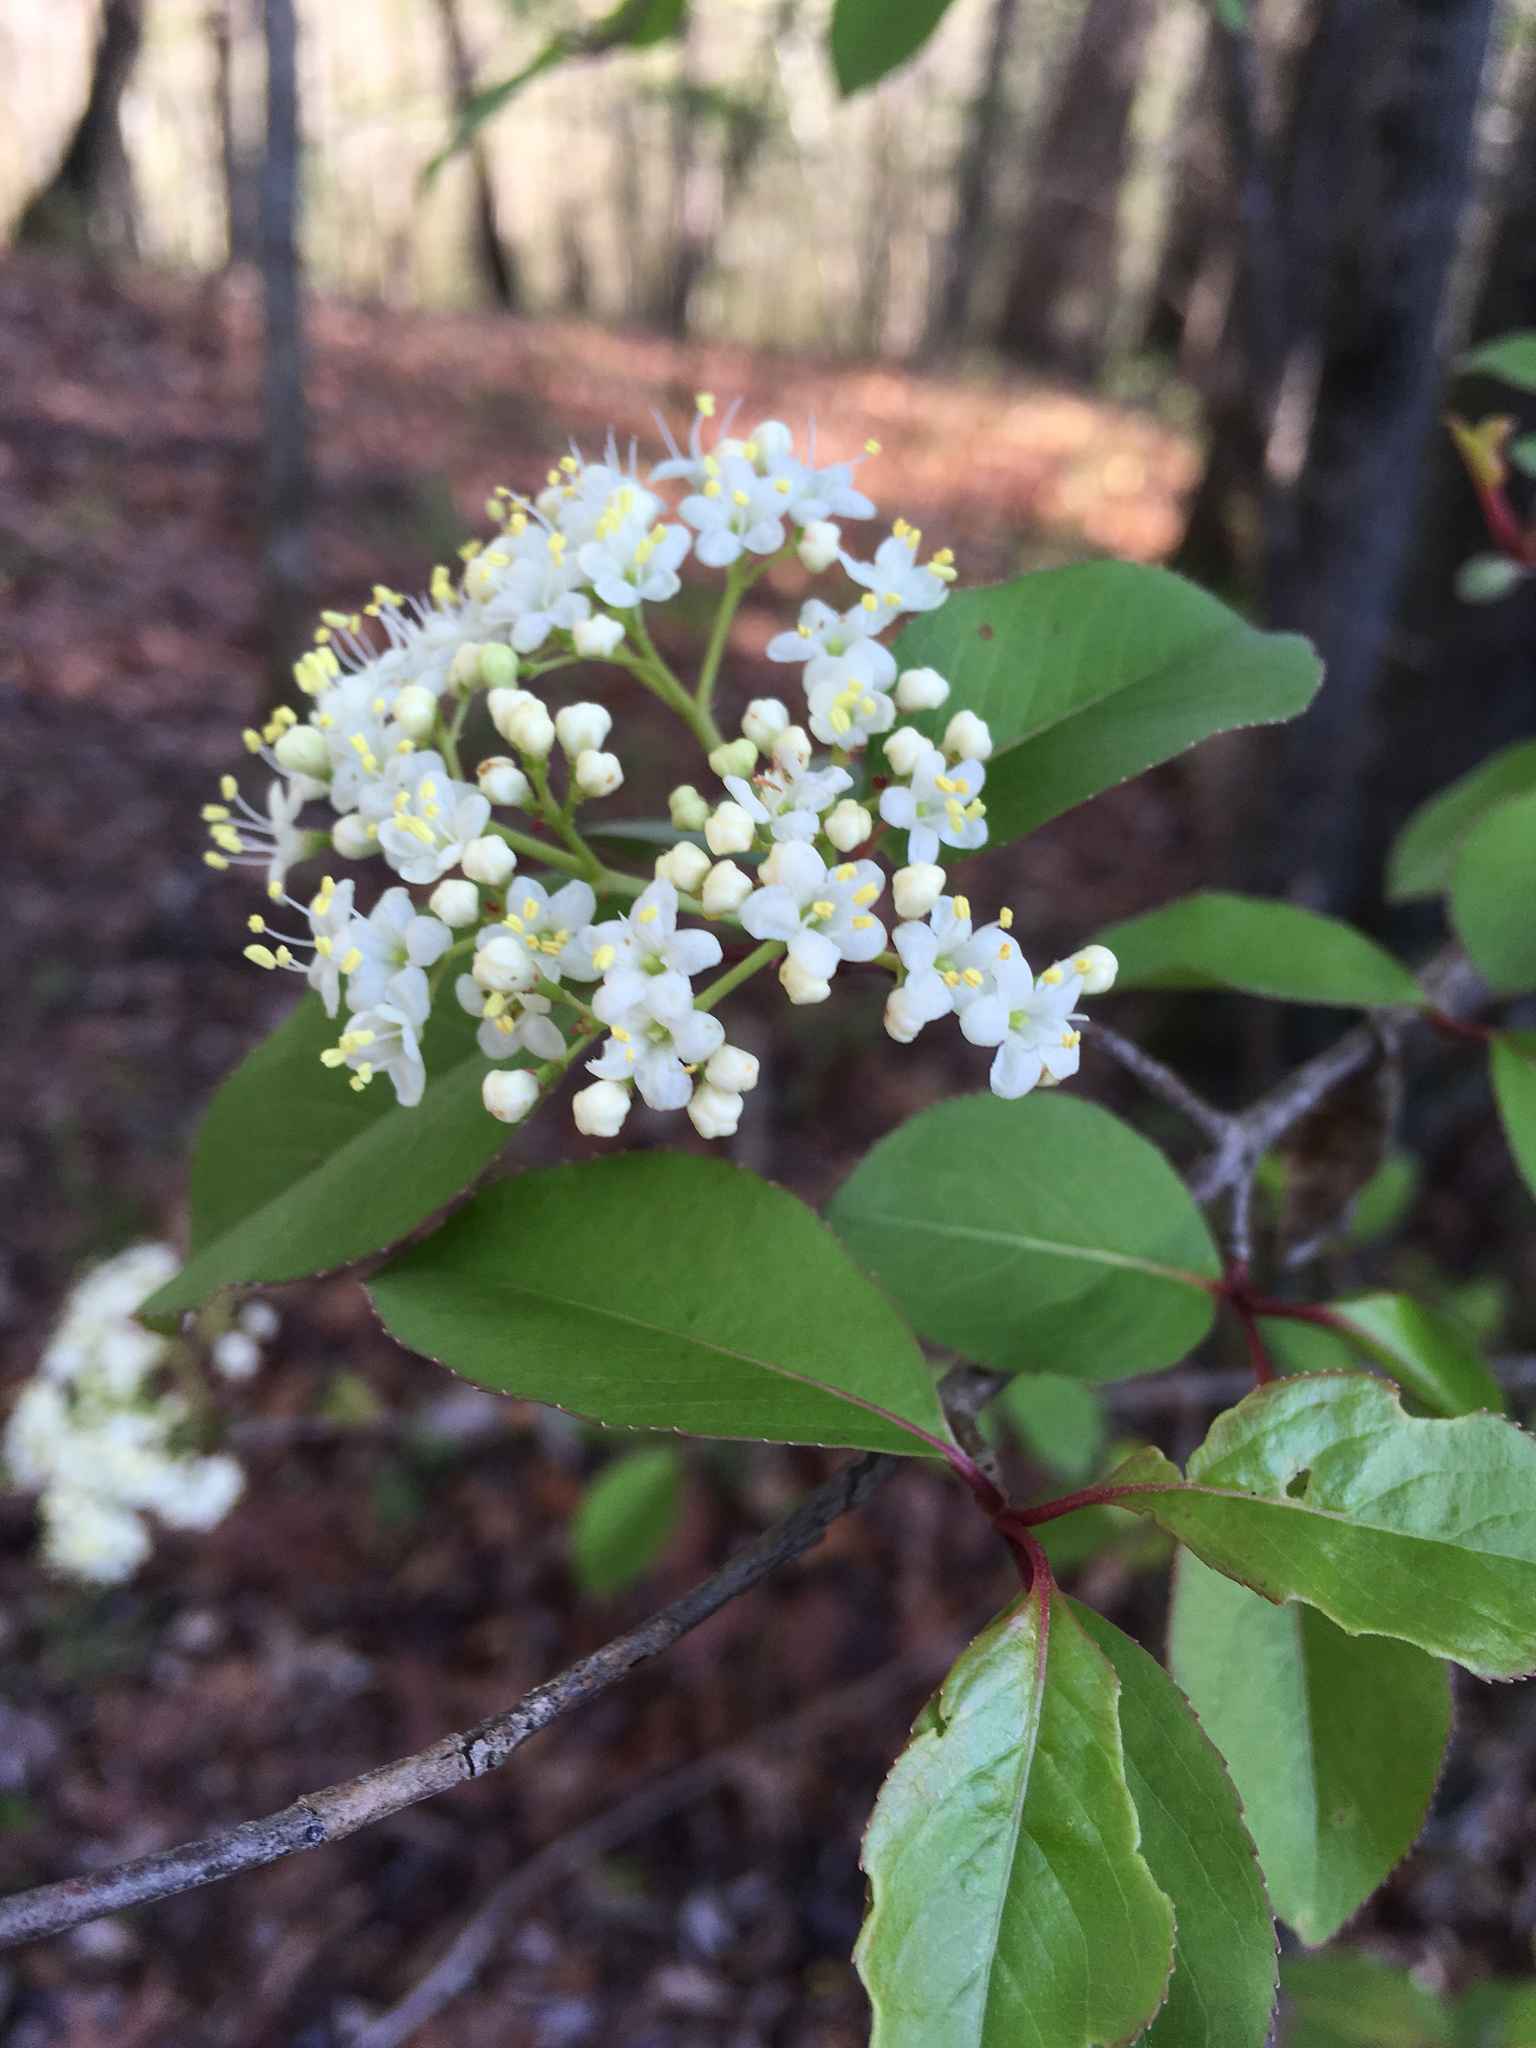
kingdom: Plantae
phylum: Tracheophyta
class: Magnoliopsida
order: Dipsacales
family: Viburnaceae
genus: Viburnum
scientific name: Viburnum prunifolium
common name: Black haw
